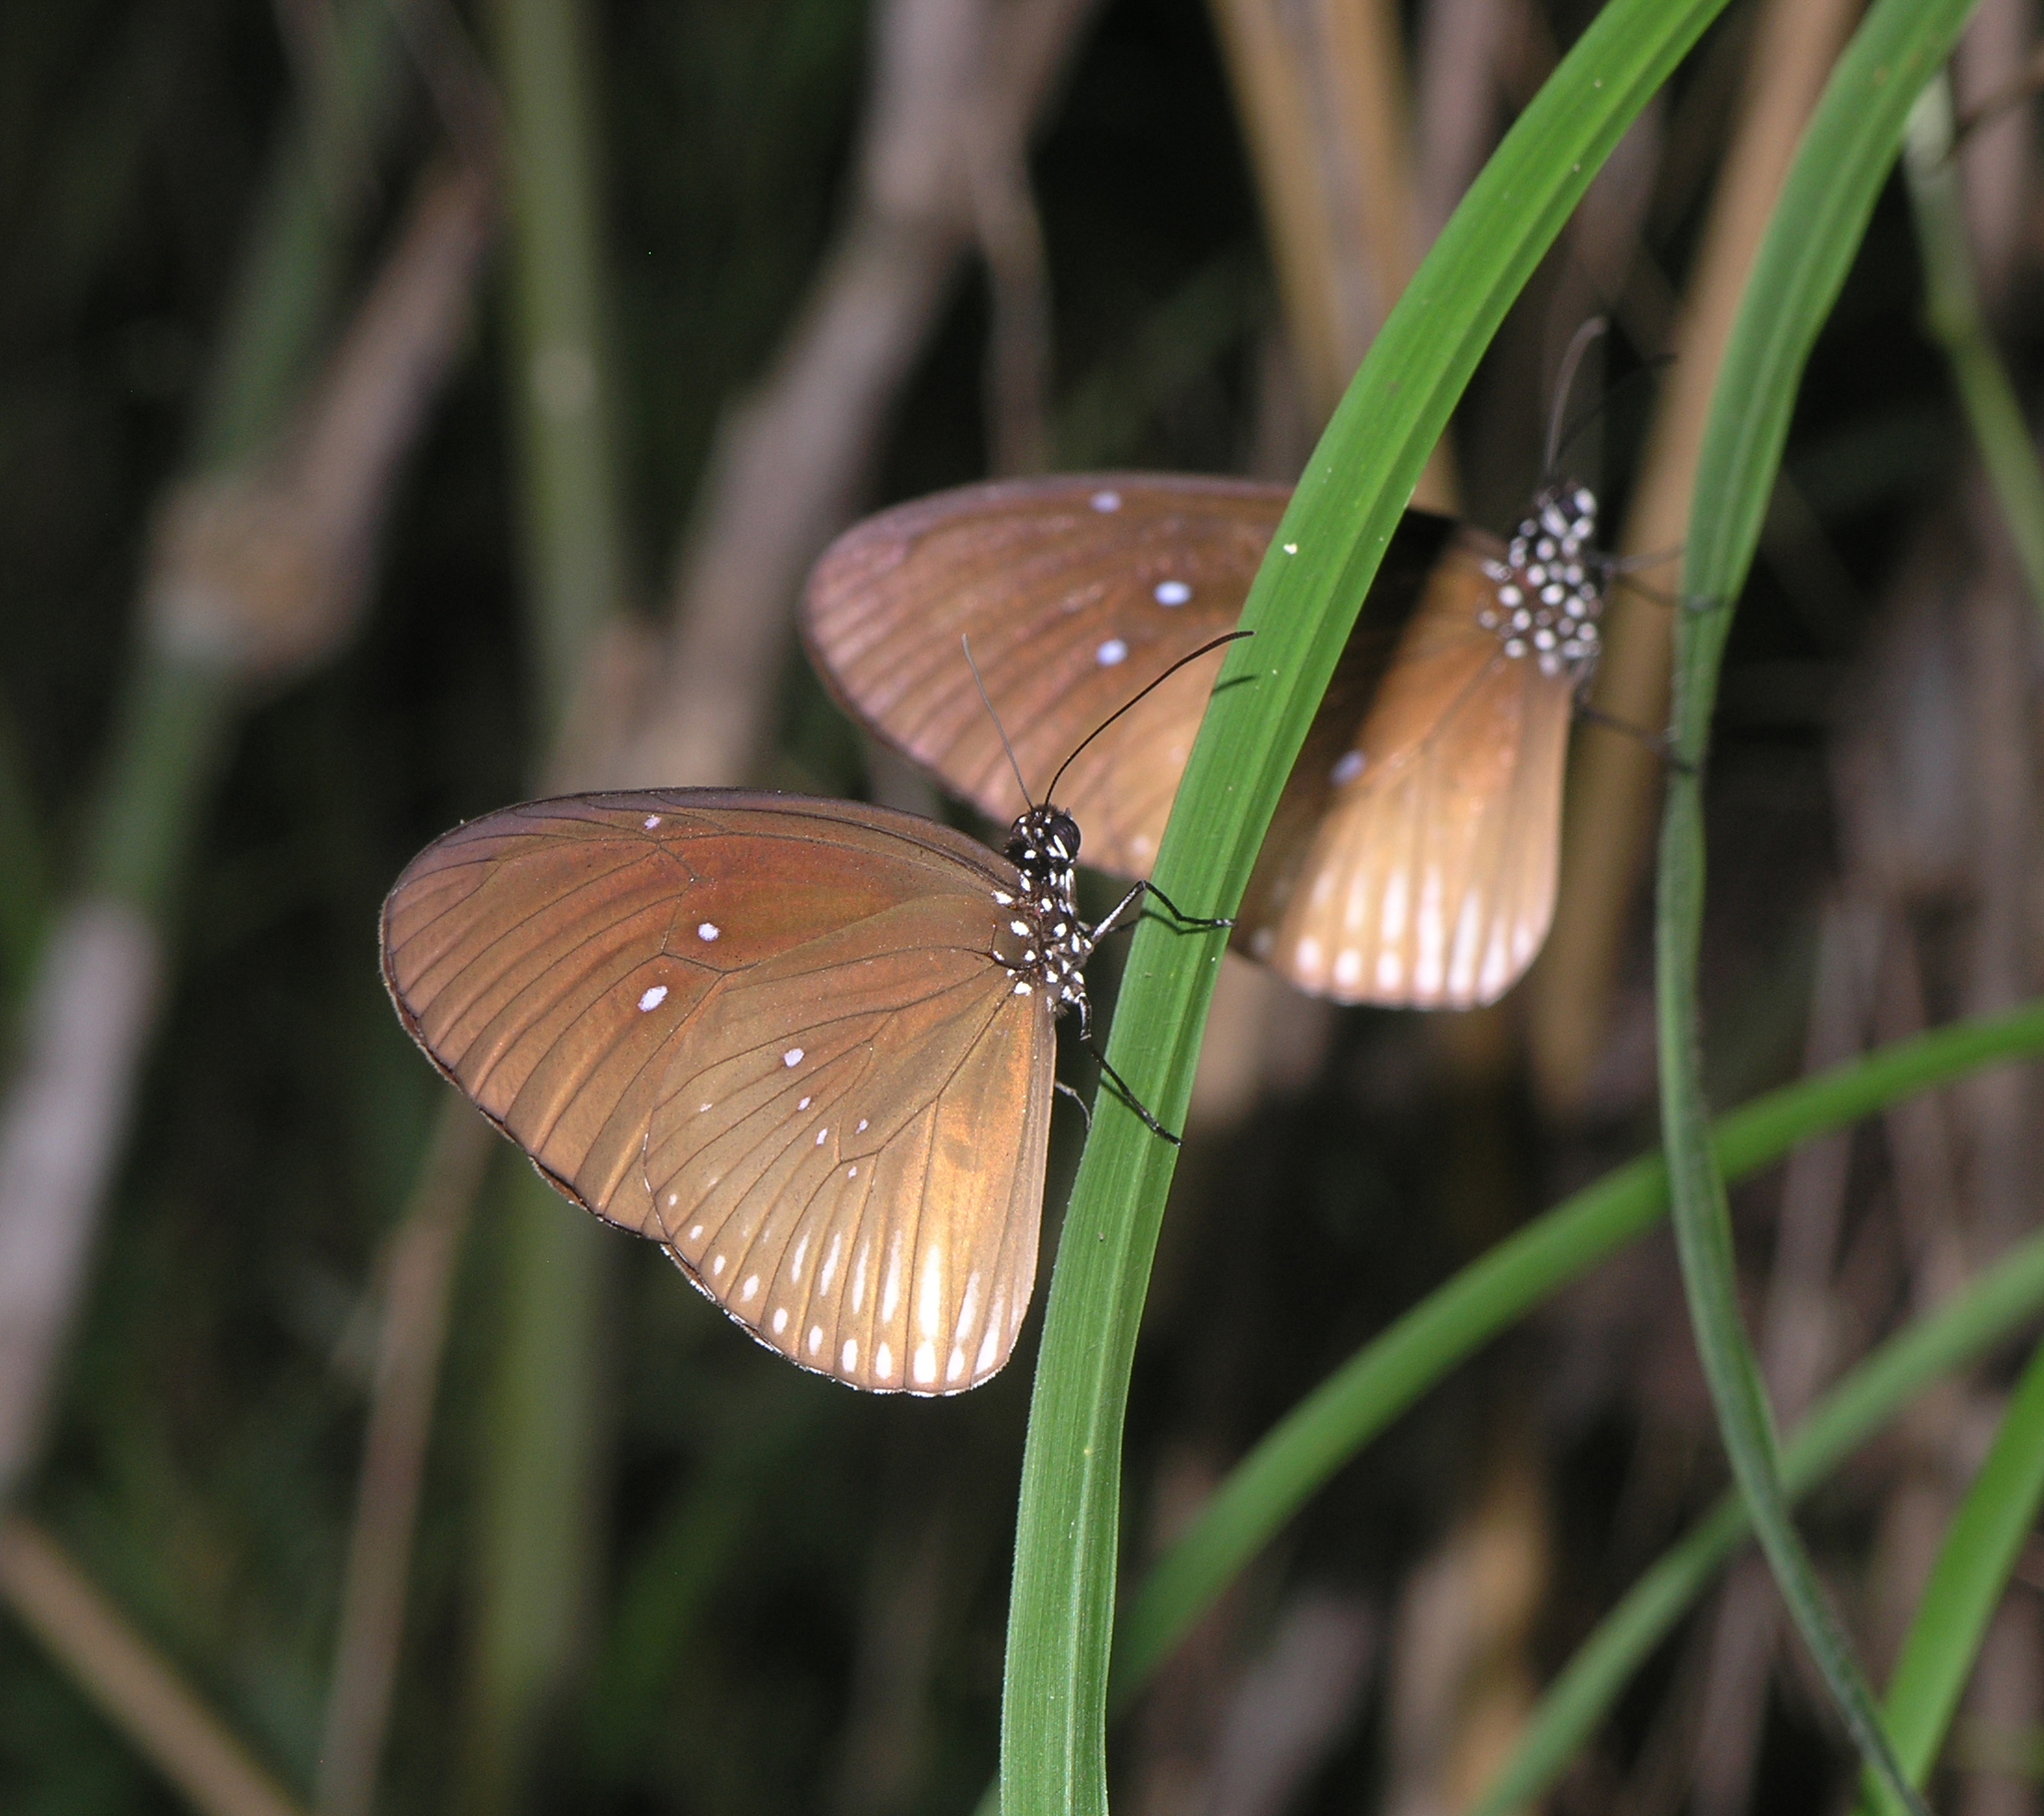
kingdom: Animalia
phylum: Arthropoda
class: Insecta
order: Lepidoptera
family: Nymphalidae
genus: Euploea
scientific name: Euploea eyndhovii
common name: Striped black crow butterfly
